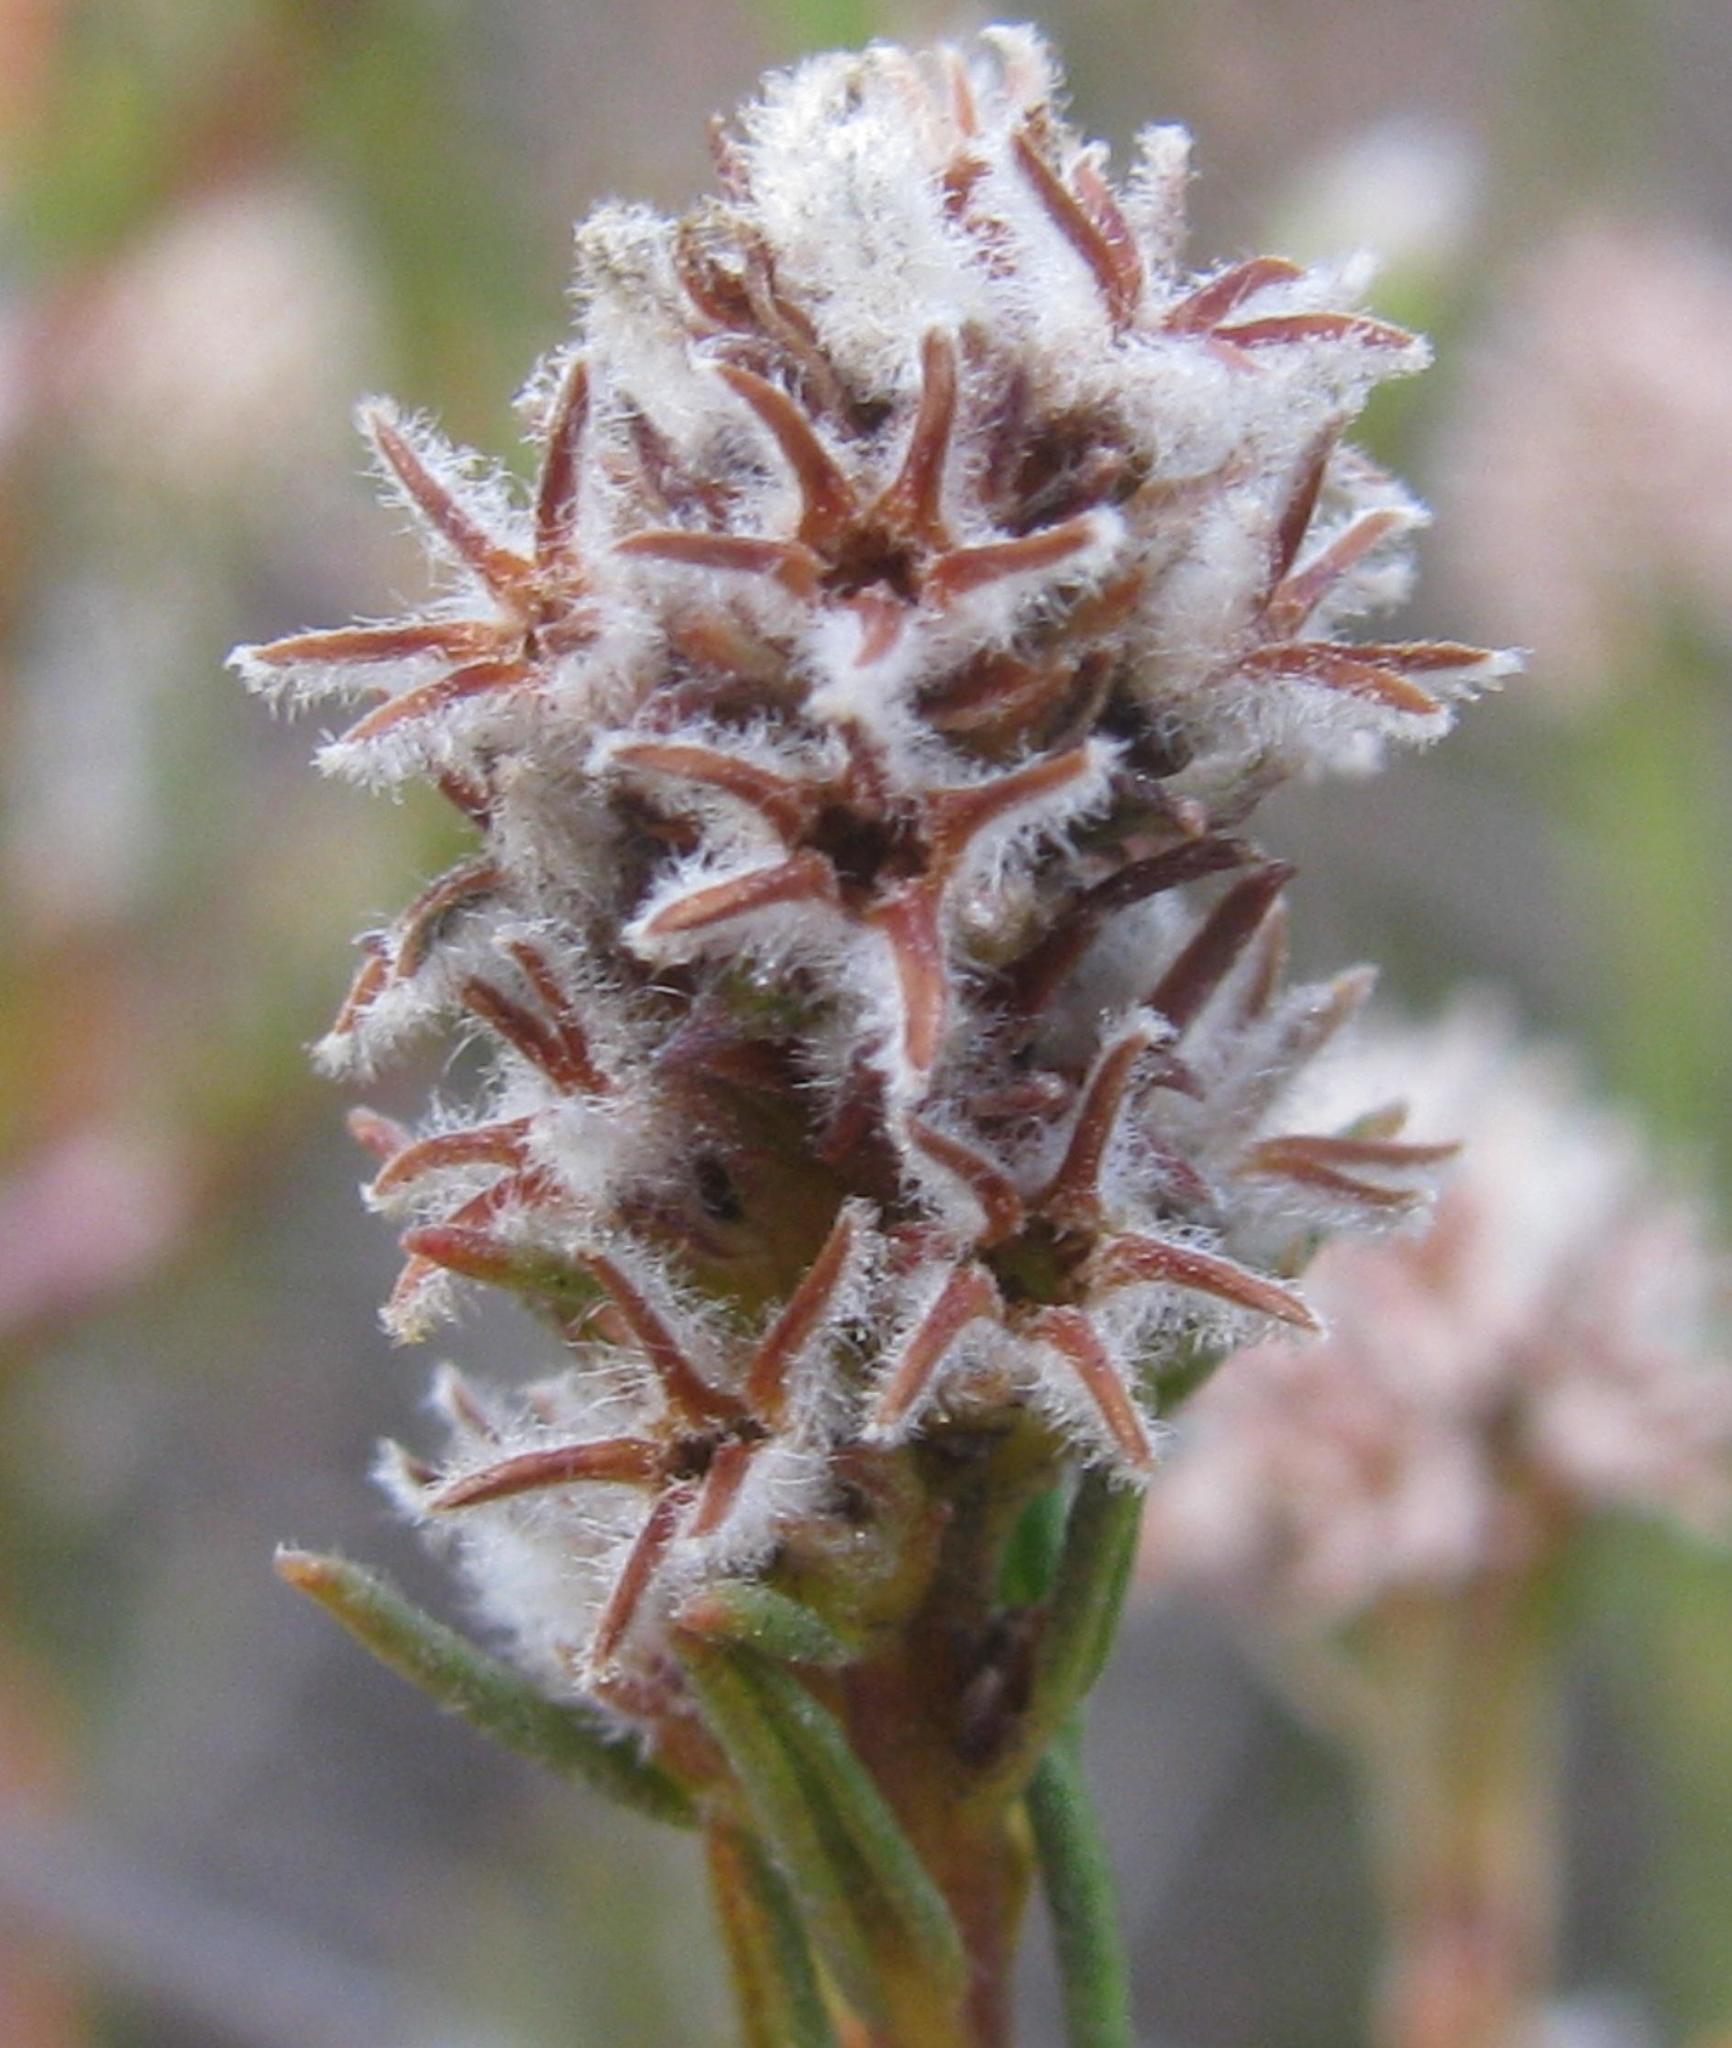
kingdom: Plantae
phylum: Tracheophyta
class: Magnoliopsida
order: Rosales
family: Rhamnaceae
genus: Phylica
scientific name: Phylica agathosmoides
